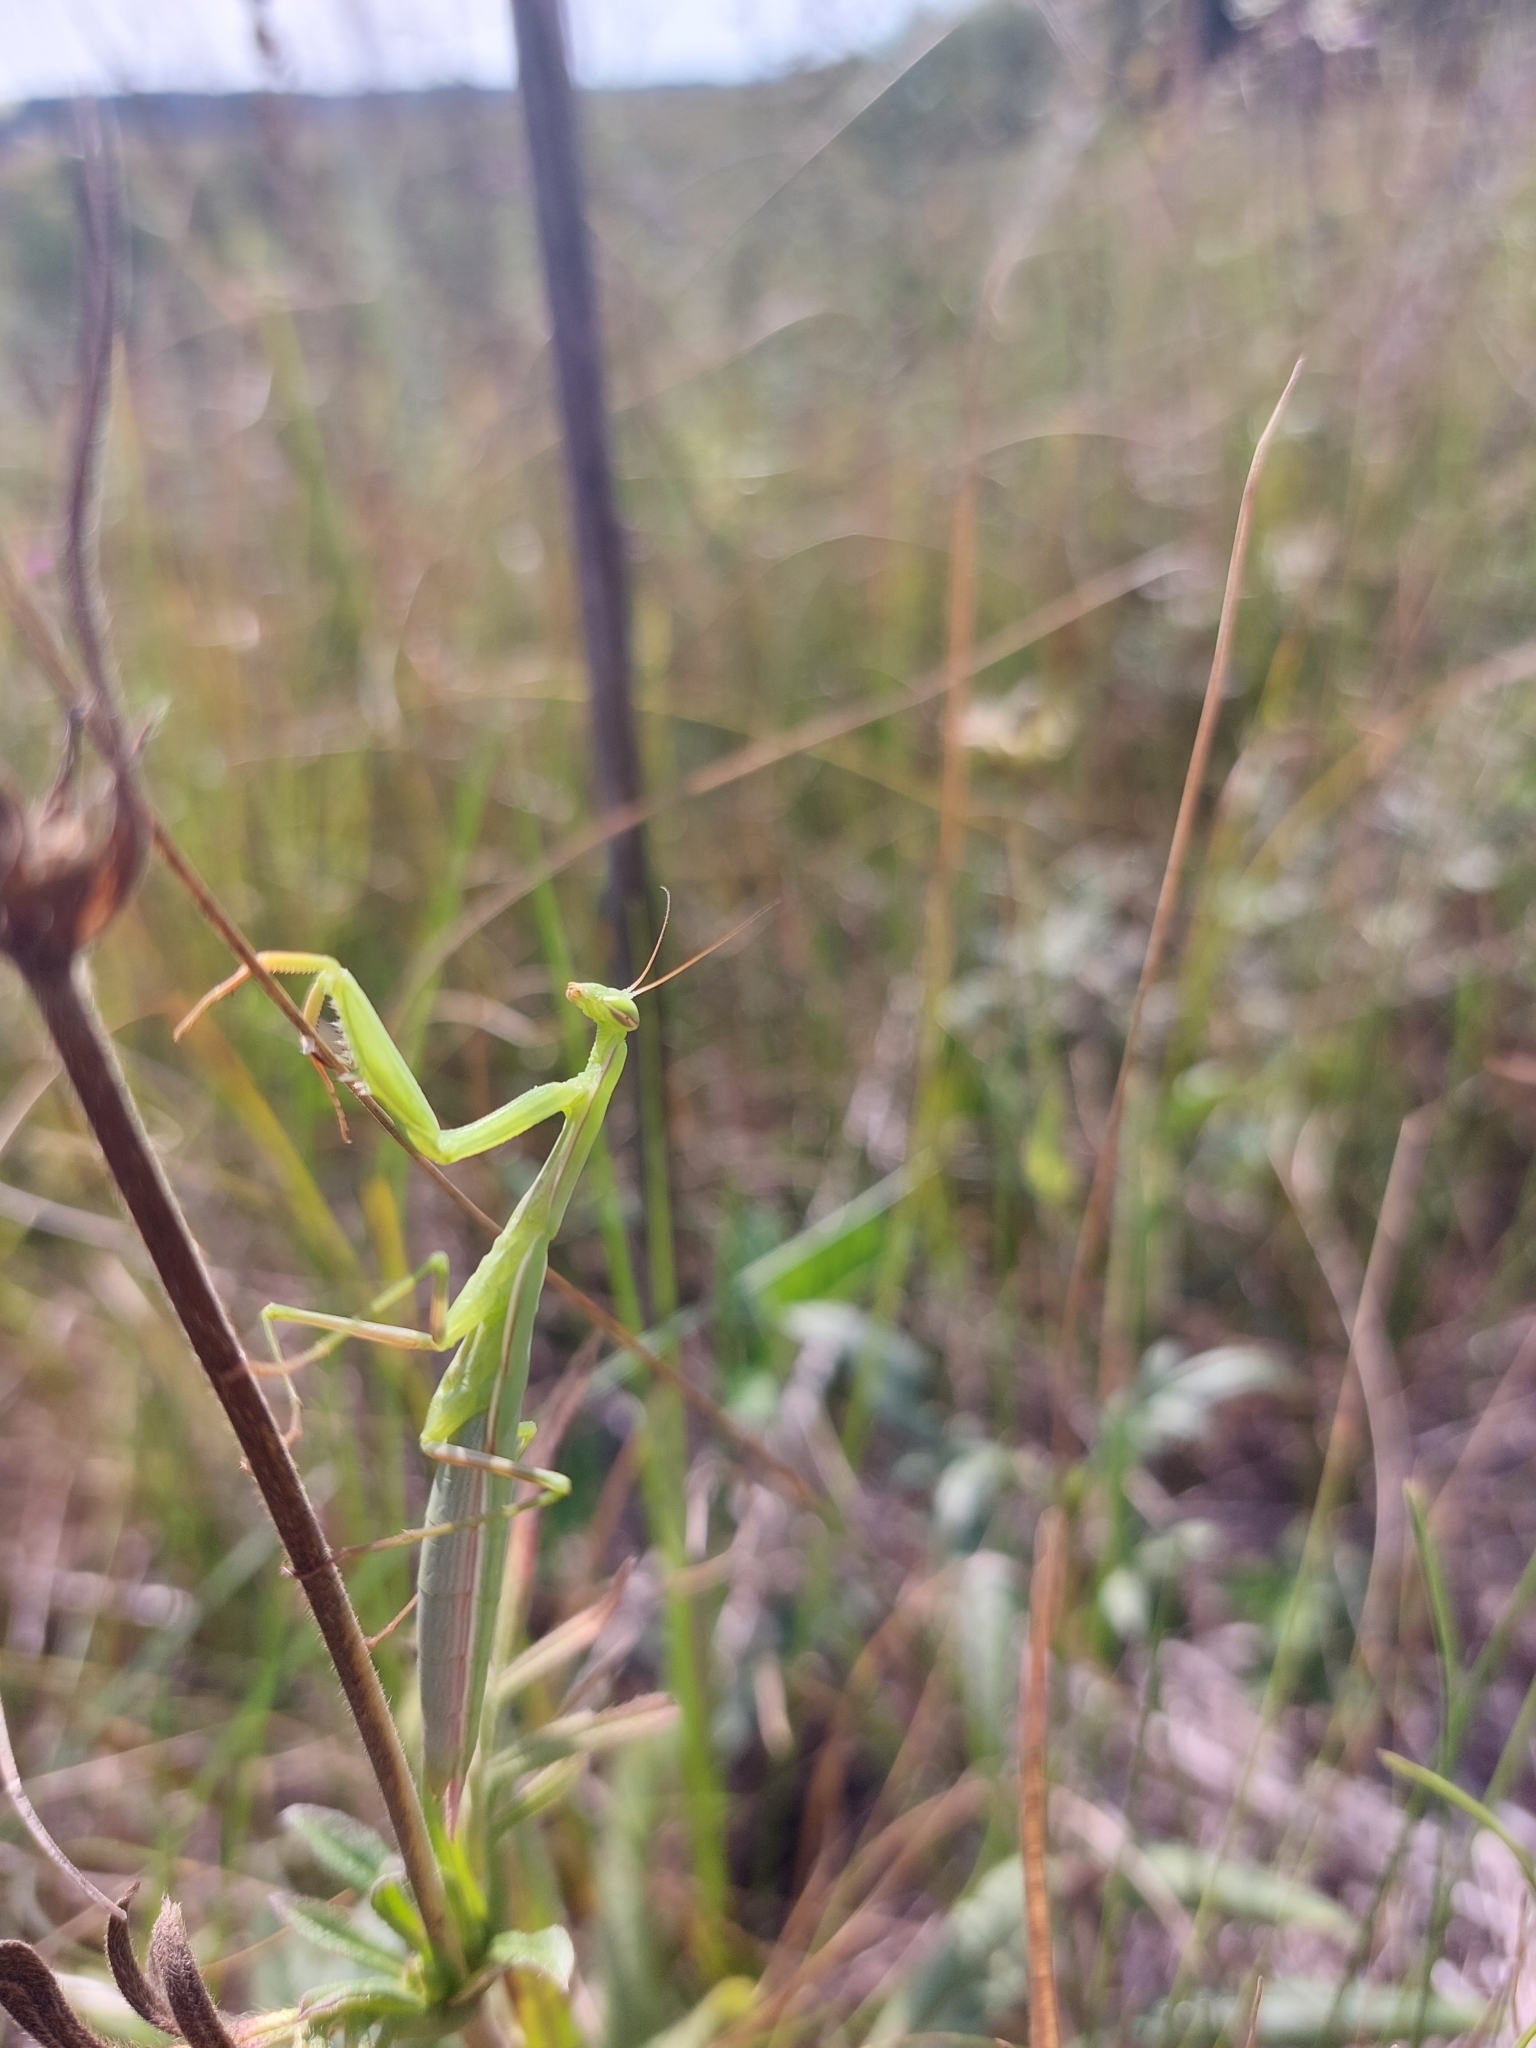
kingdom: Animalia
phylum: Arthropoda
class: Insecta
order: Mantodea
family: Mantidae
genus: Mantis
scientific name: Mantis religiosa
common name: Praying mantis
